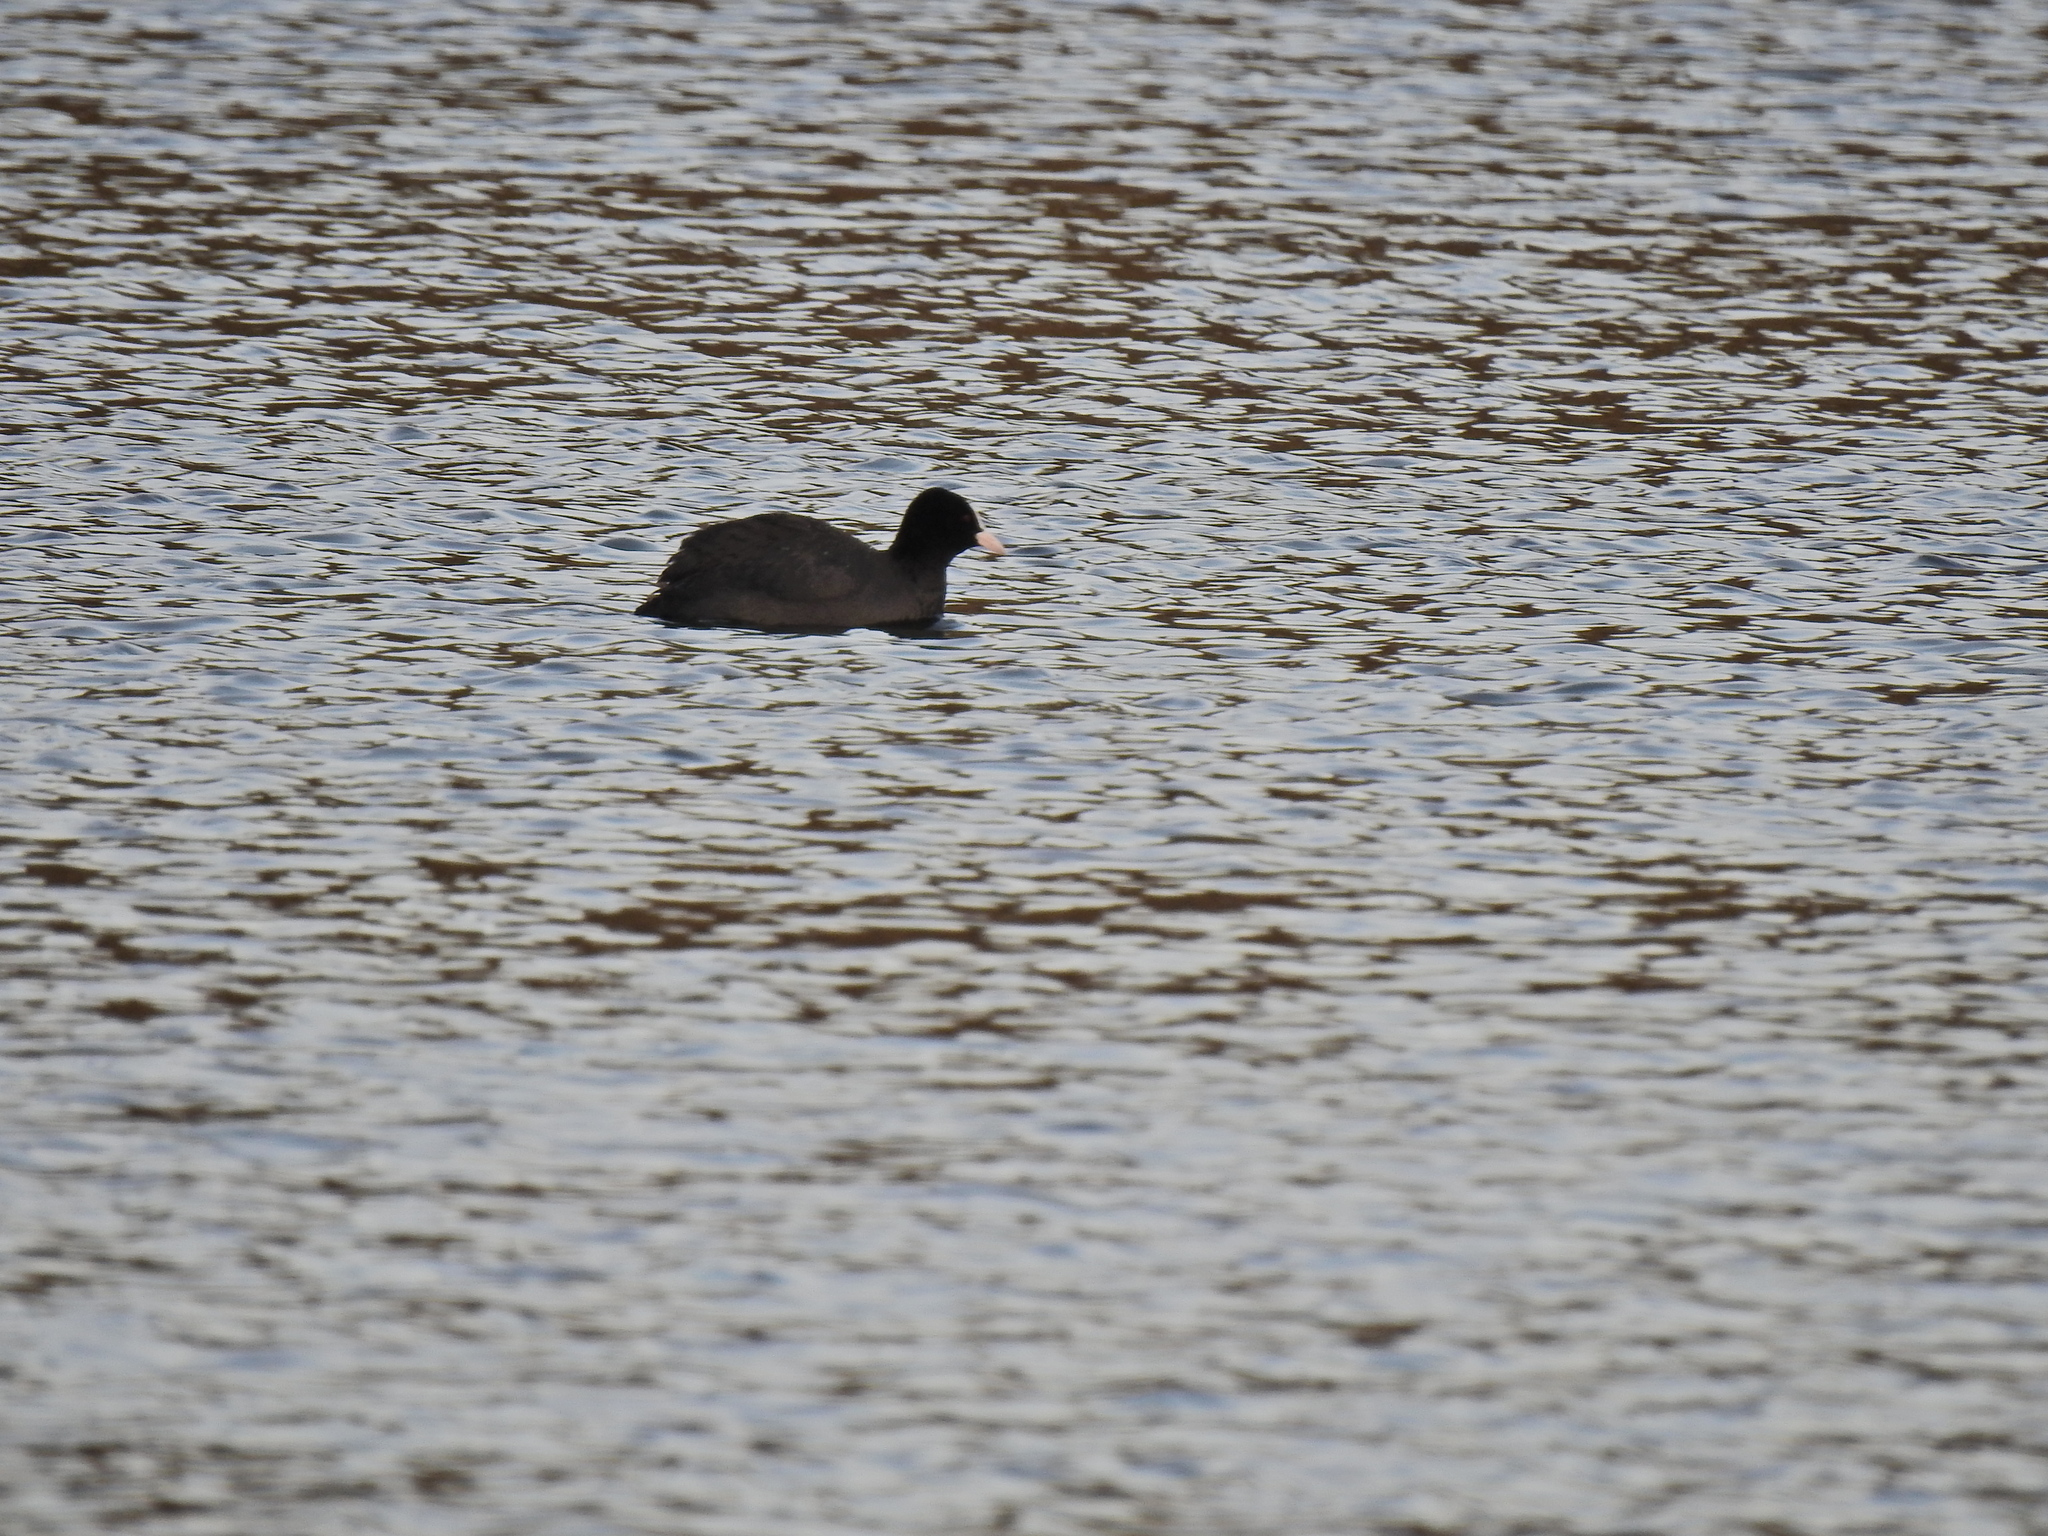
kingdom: Animalia
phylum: Chordata
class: Aves
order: Gruiformes
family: Rallidae
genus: Fulica
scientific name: Fulica atra
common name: Eurasian coot
